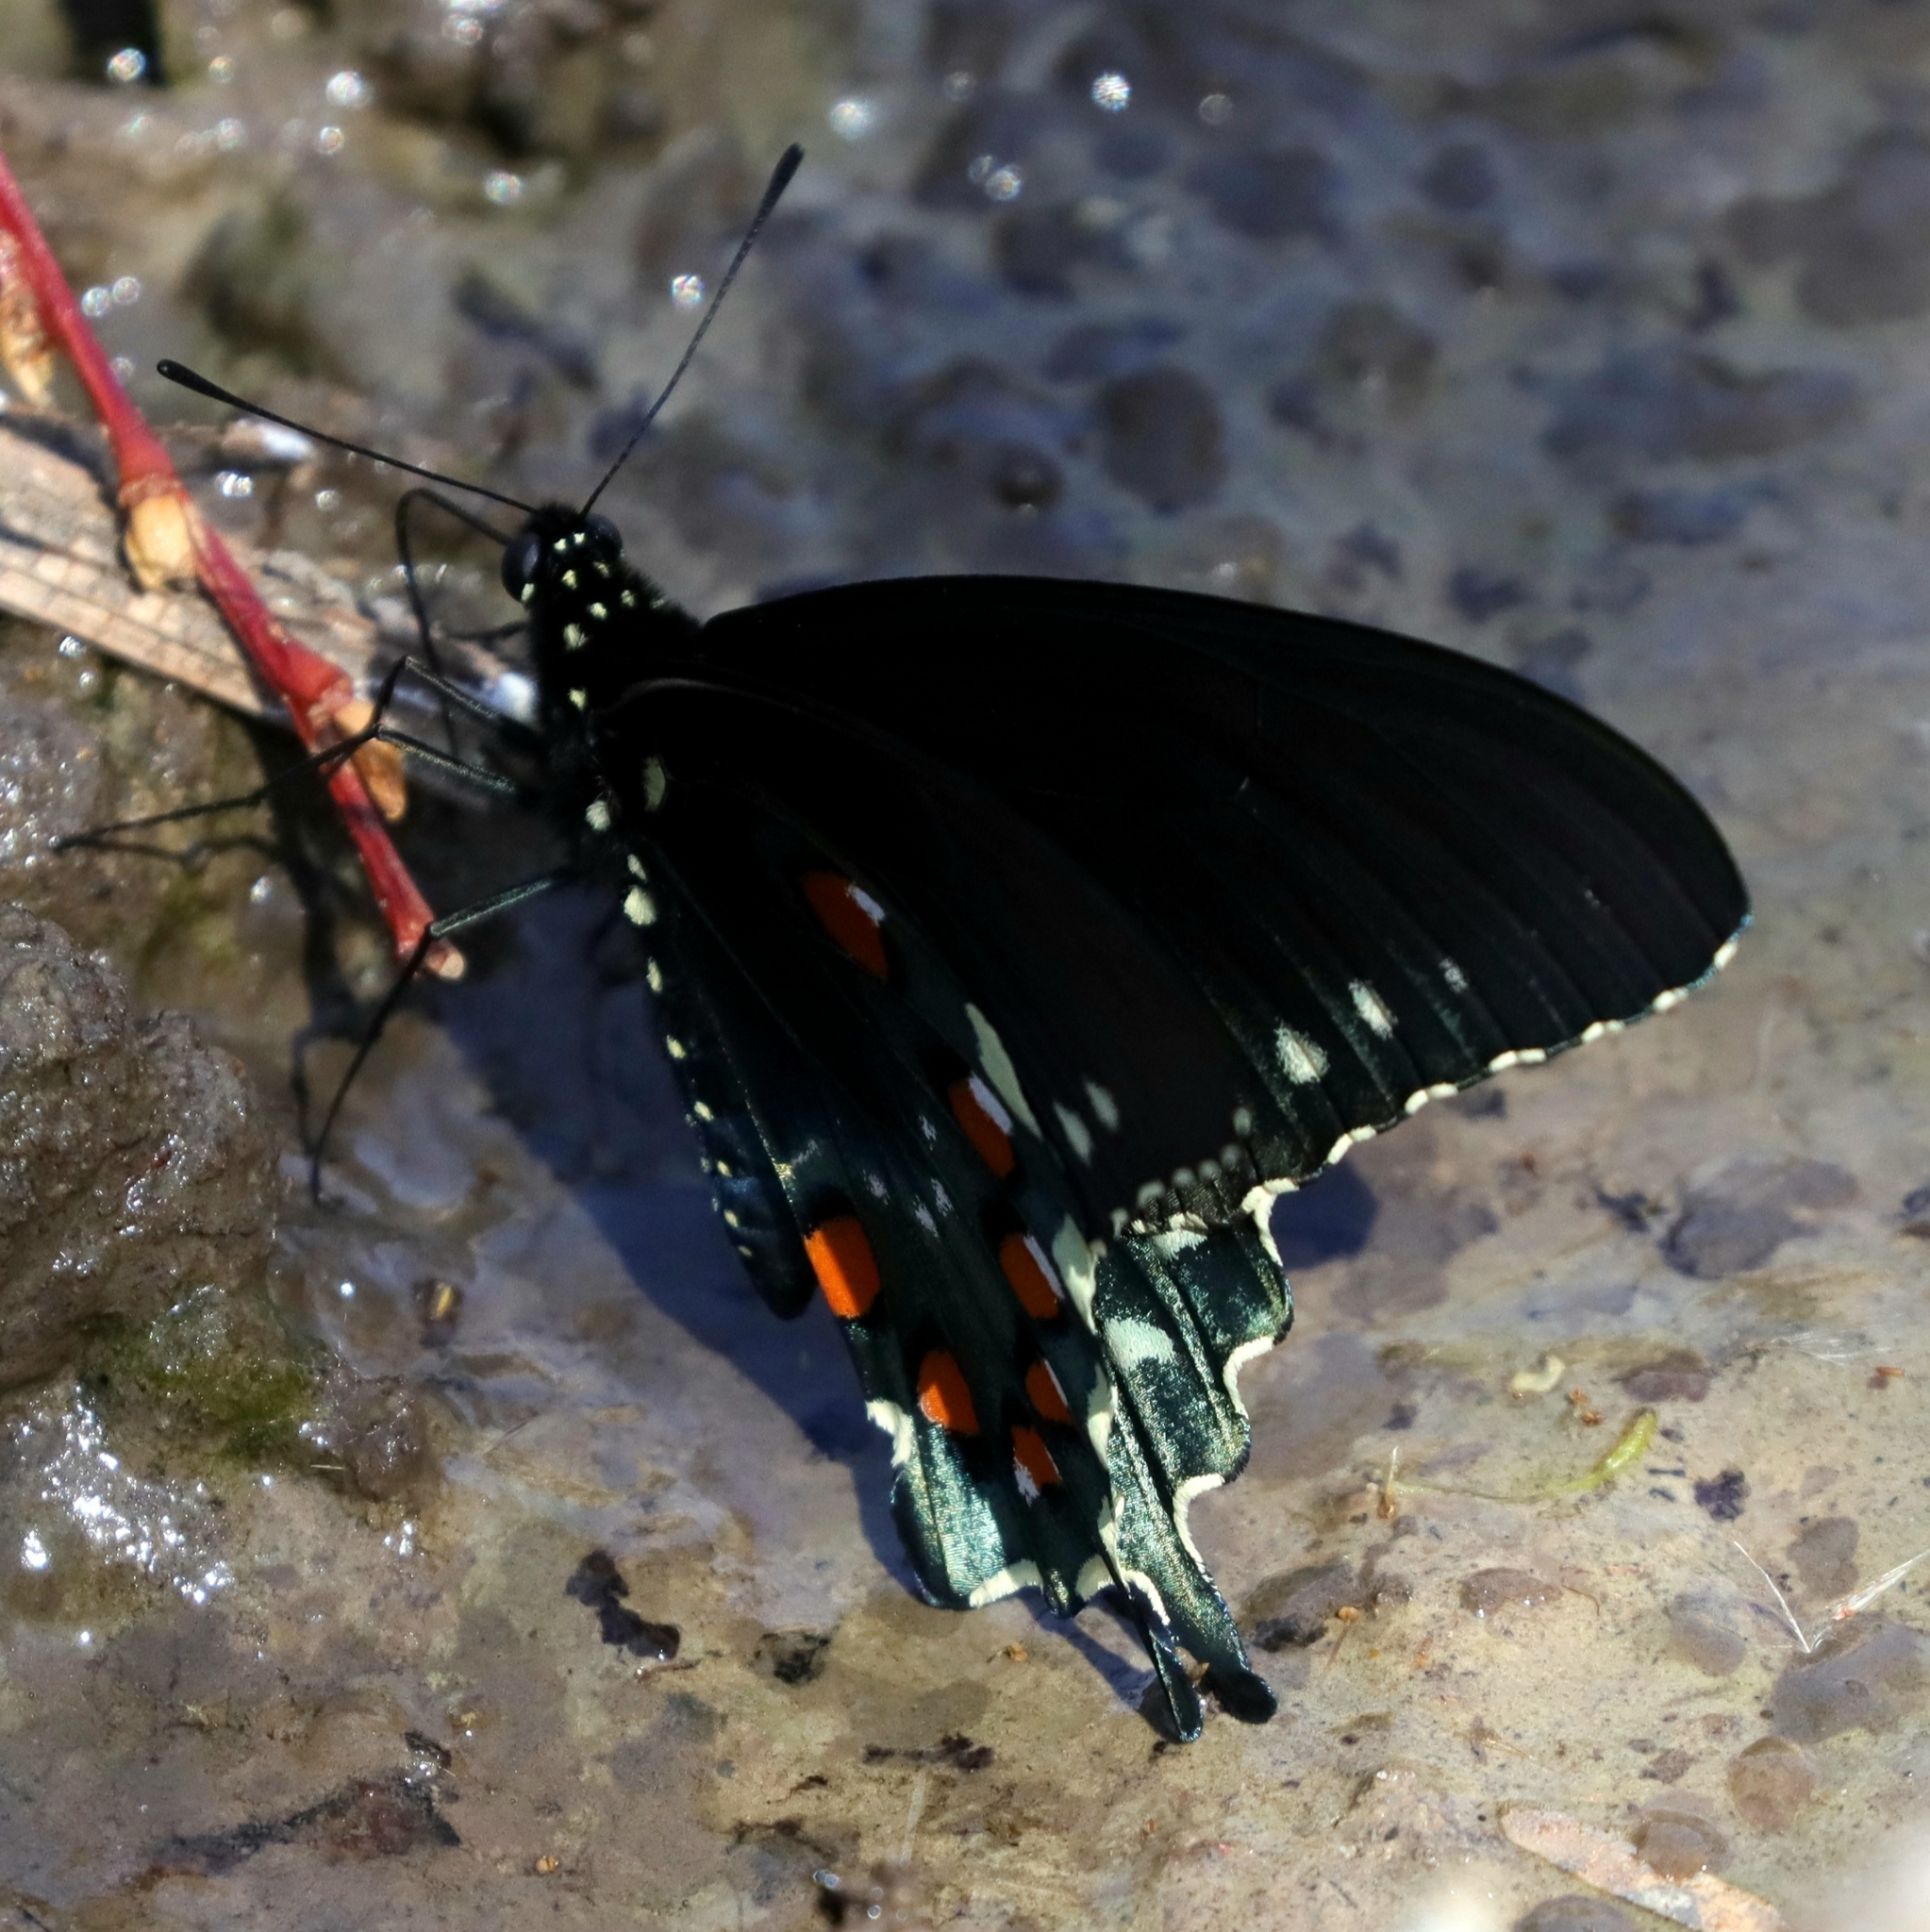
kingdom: Animalia
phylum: Arthropoda
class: Insecta
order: Lepidoptera
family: Papilionidae
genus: Battus
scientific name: Battus philenor
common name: Pipevine swallowtail
